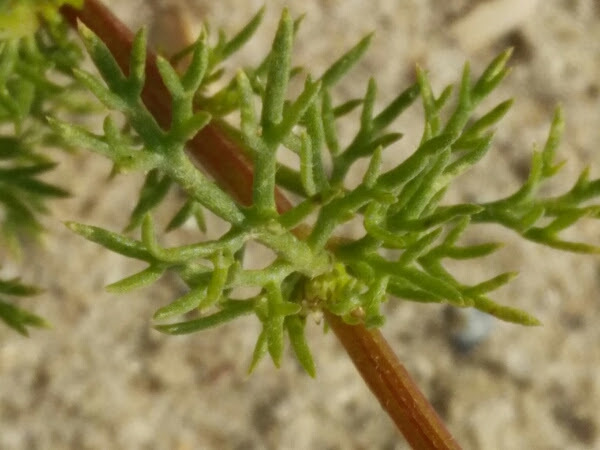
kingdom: Plantae
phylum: Tracheophyta
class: Magnoliopsida
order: Asterales
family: Asteraceae
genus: Tripleurospermum
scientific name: Tripleurospermum maritimum
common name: Sea mayweed
